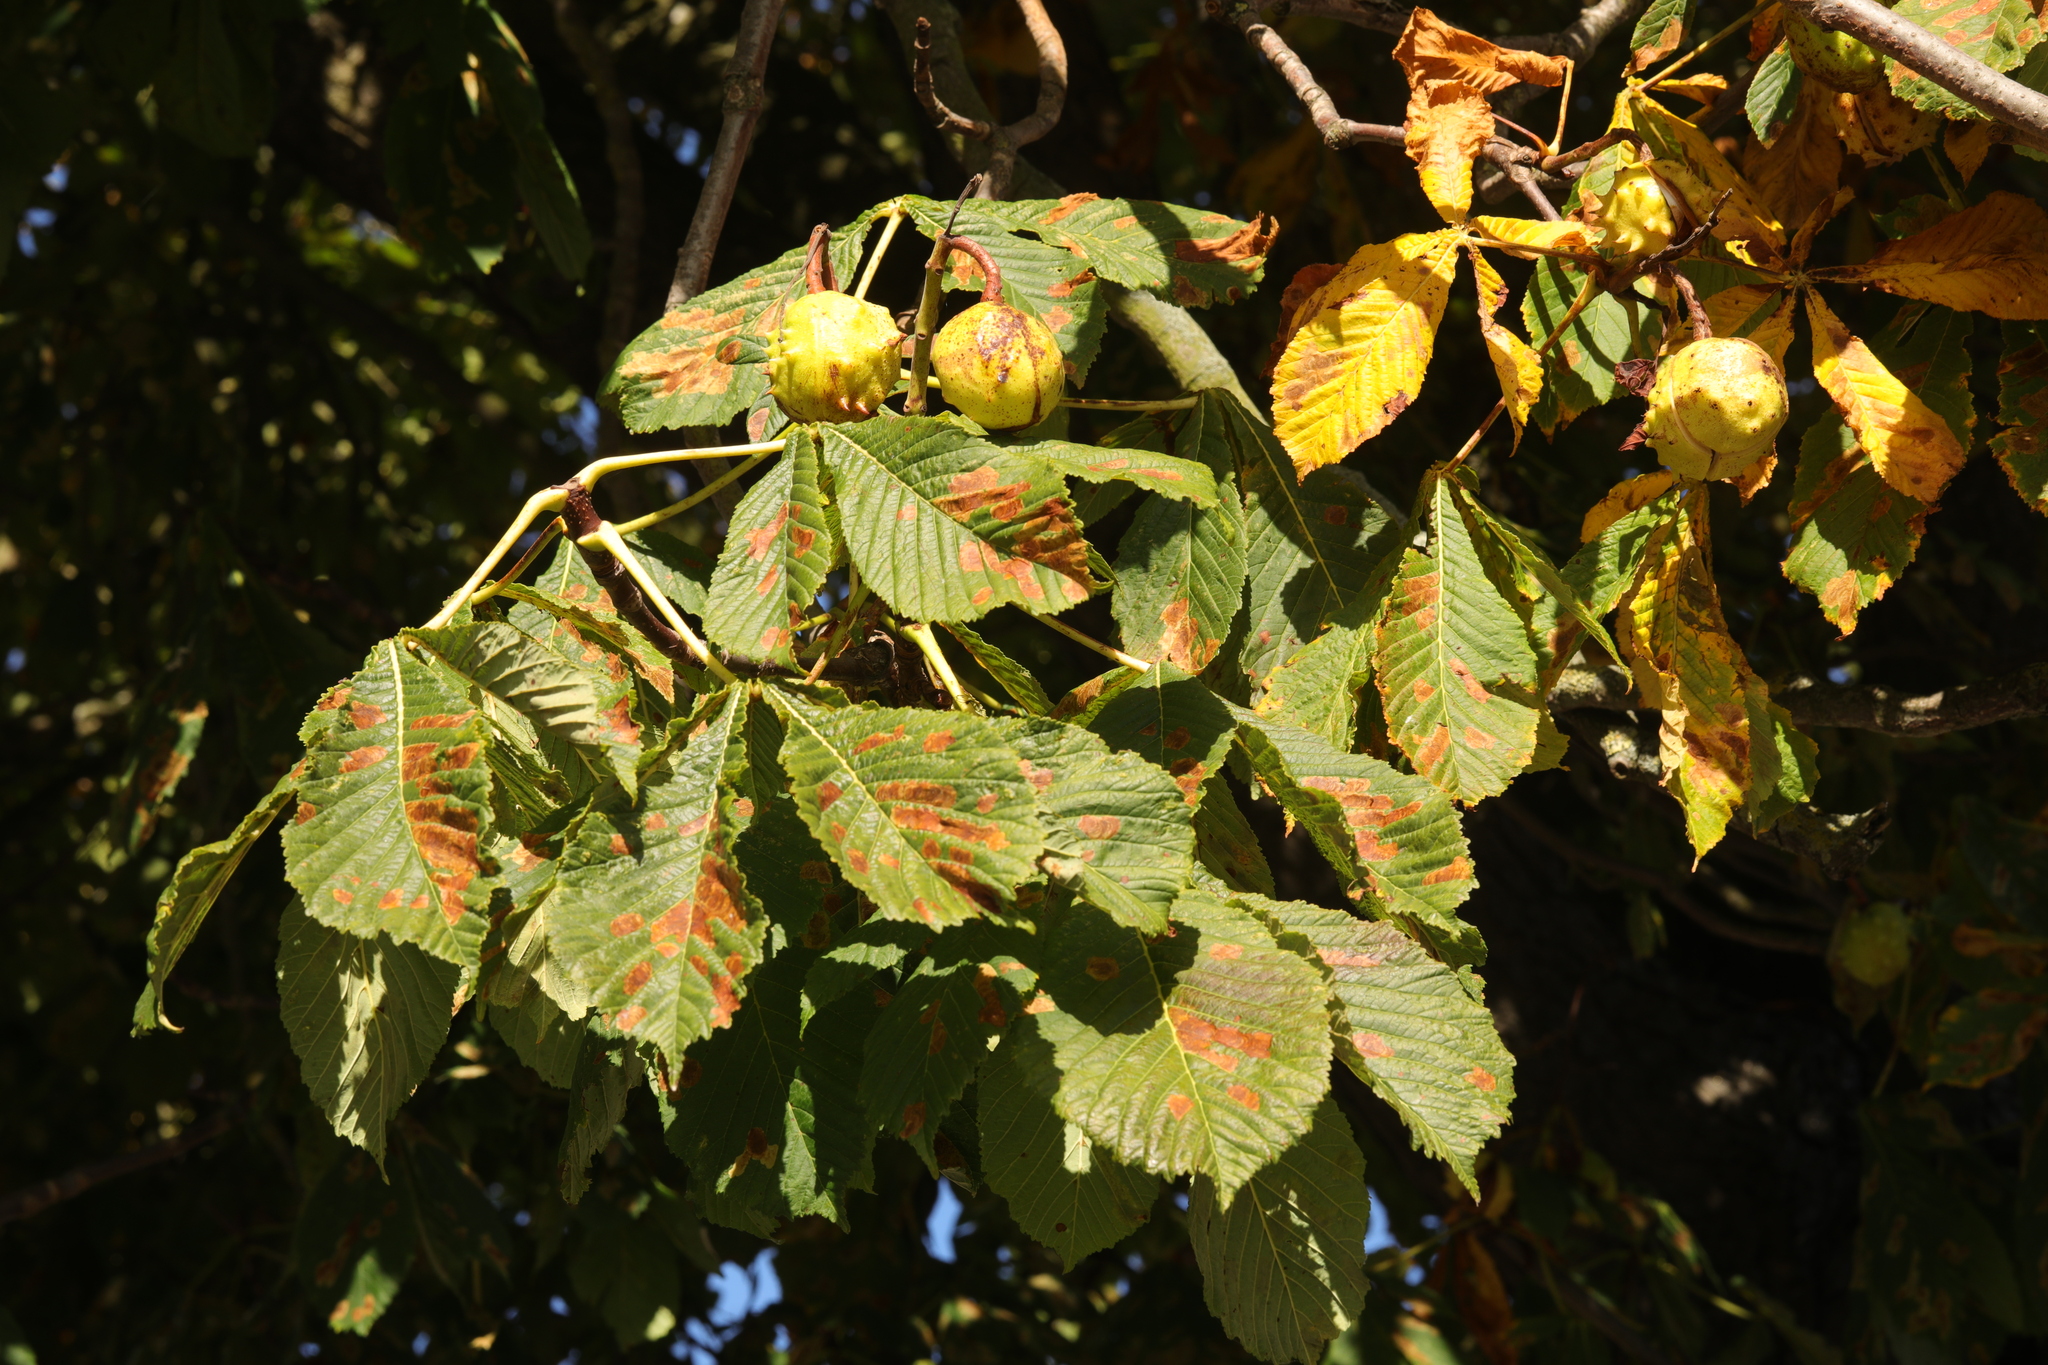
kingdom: Animalia
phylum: Arthropoda
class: Insecta
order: Lepidoptera
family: Gracillariidae
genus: Cameraria
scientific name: Cameraria ohridella
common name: Horse-chestnut leaf-miner
